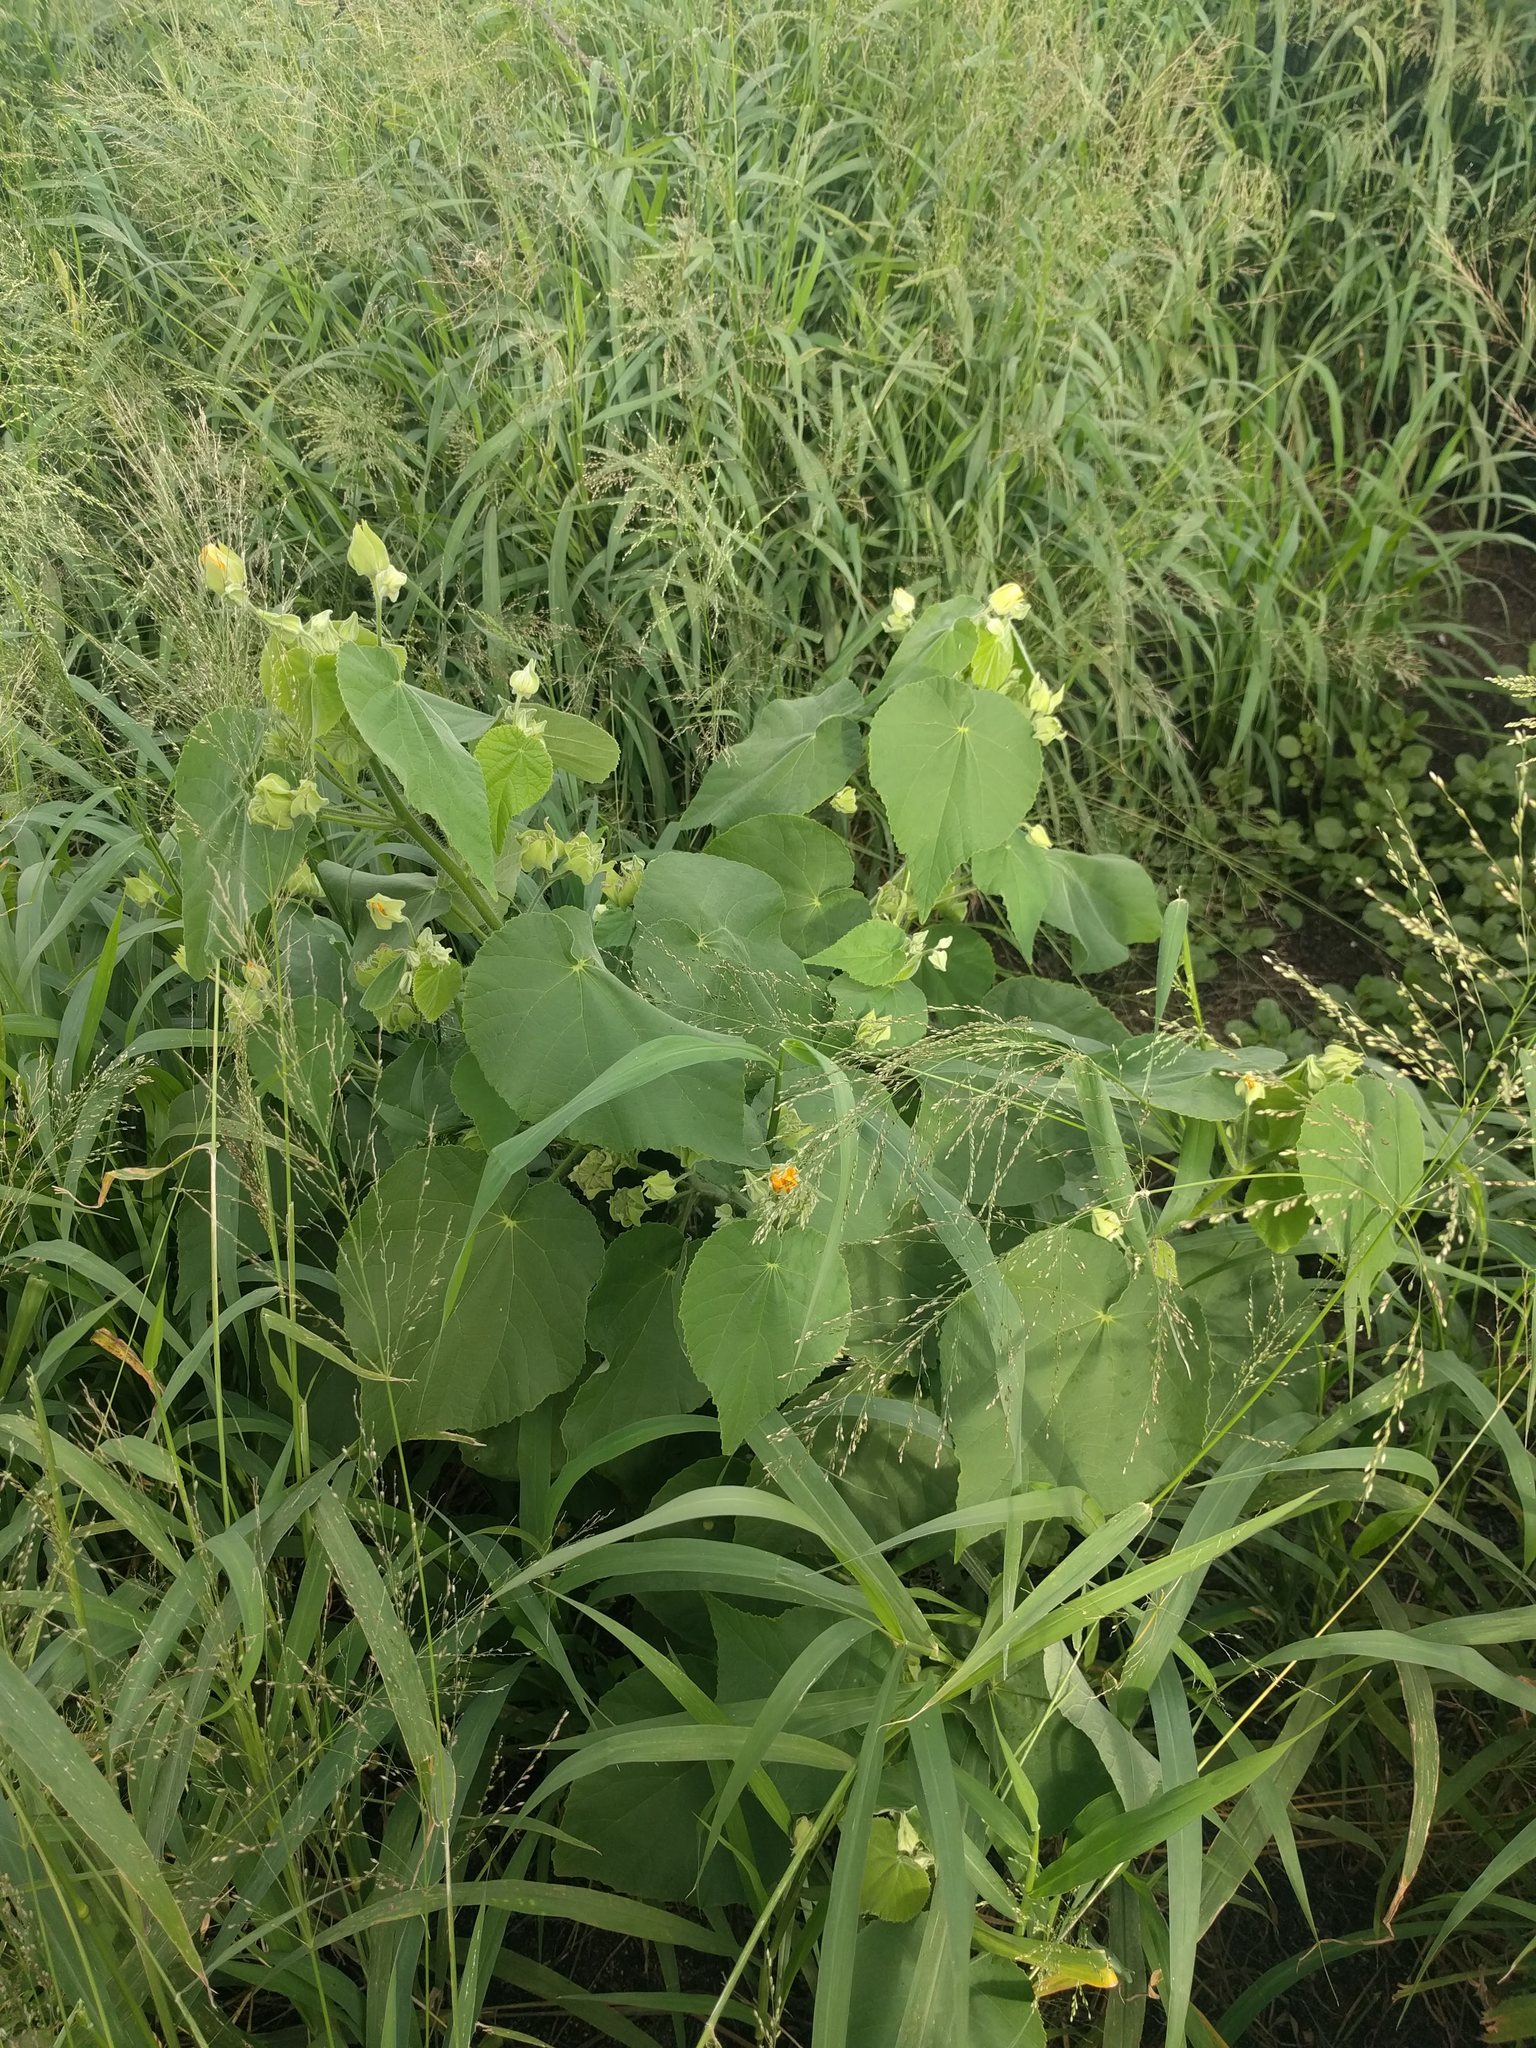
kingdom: Plantae
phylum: Tracheophyta
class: Magnoliopsida
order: Malvales
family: Malvaceae
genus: Abutilon
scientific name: Abutilon grandifolium
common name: Hairy abutilon
